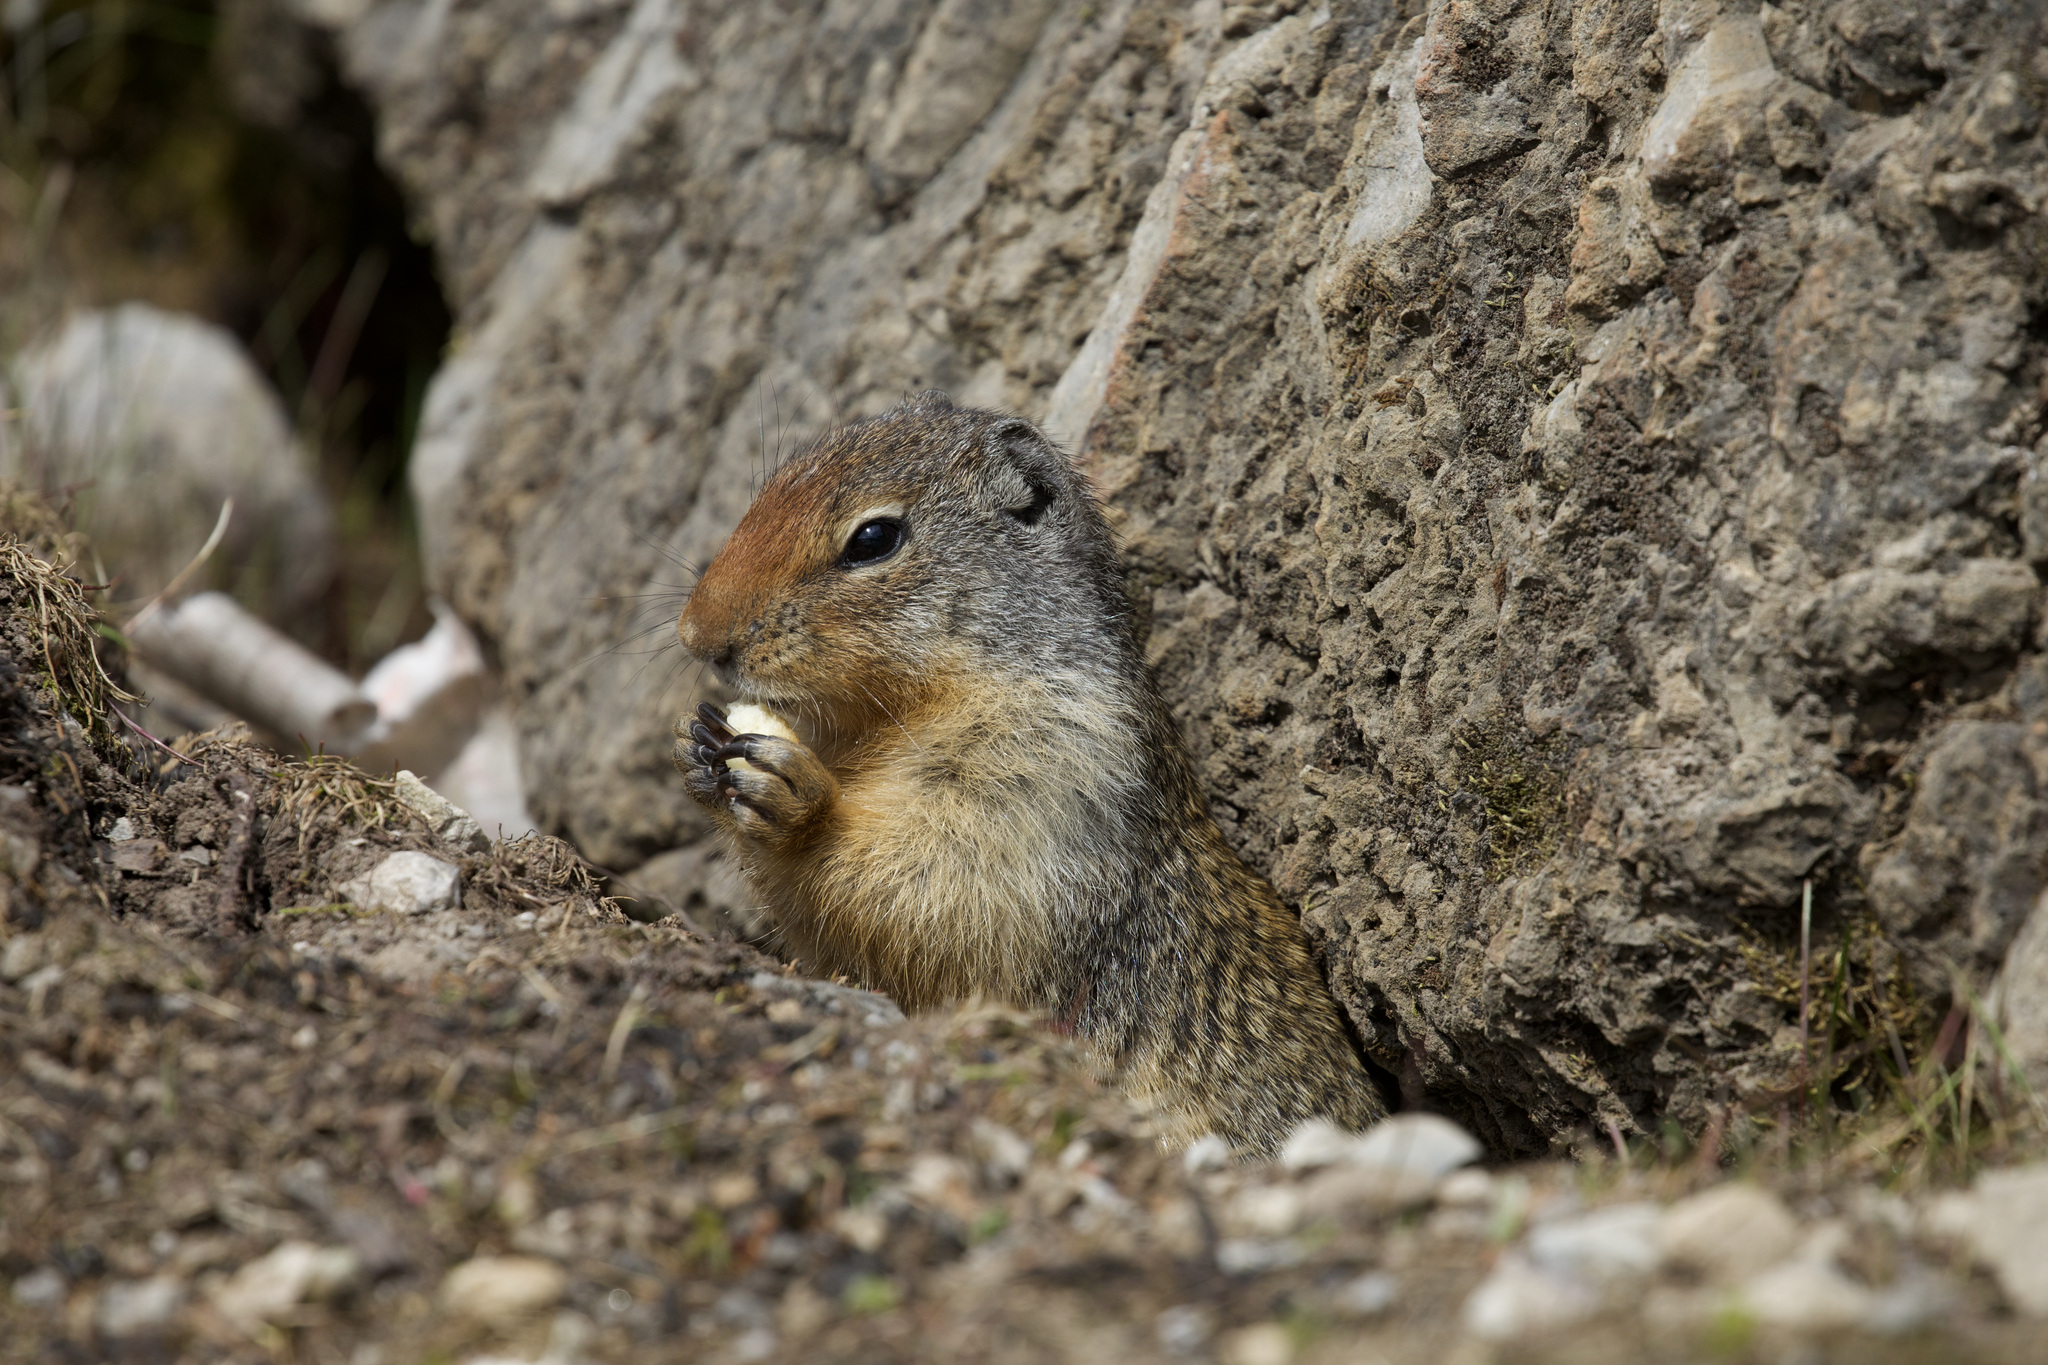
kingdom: Animalia
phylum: Chordata
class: Mammalia
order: Rodentia
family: Sciuridae
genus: Urocitellus
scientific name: Urocitellus columbianus
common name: Columbian ground squirrel
